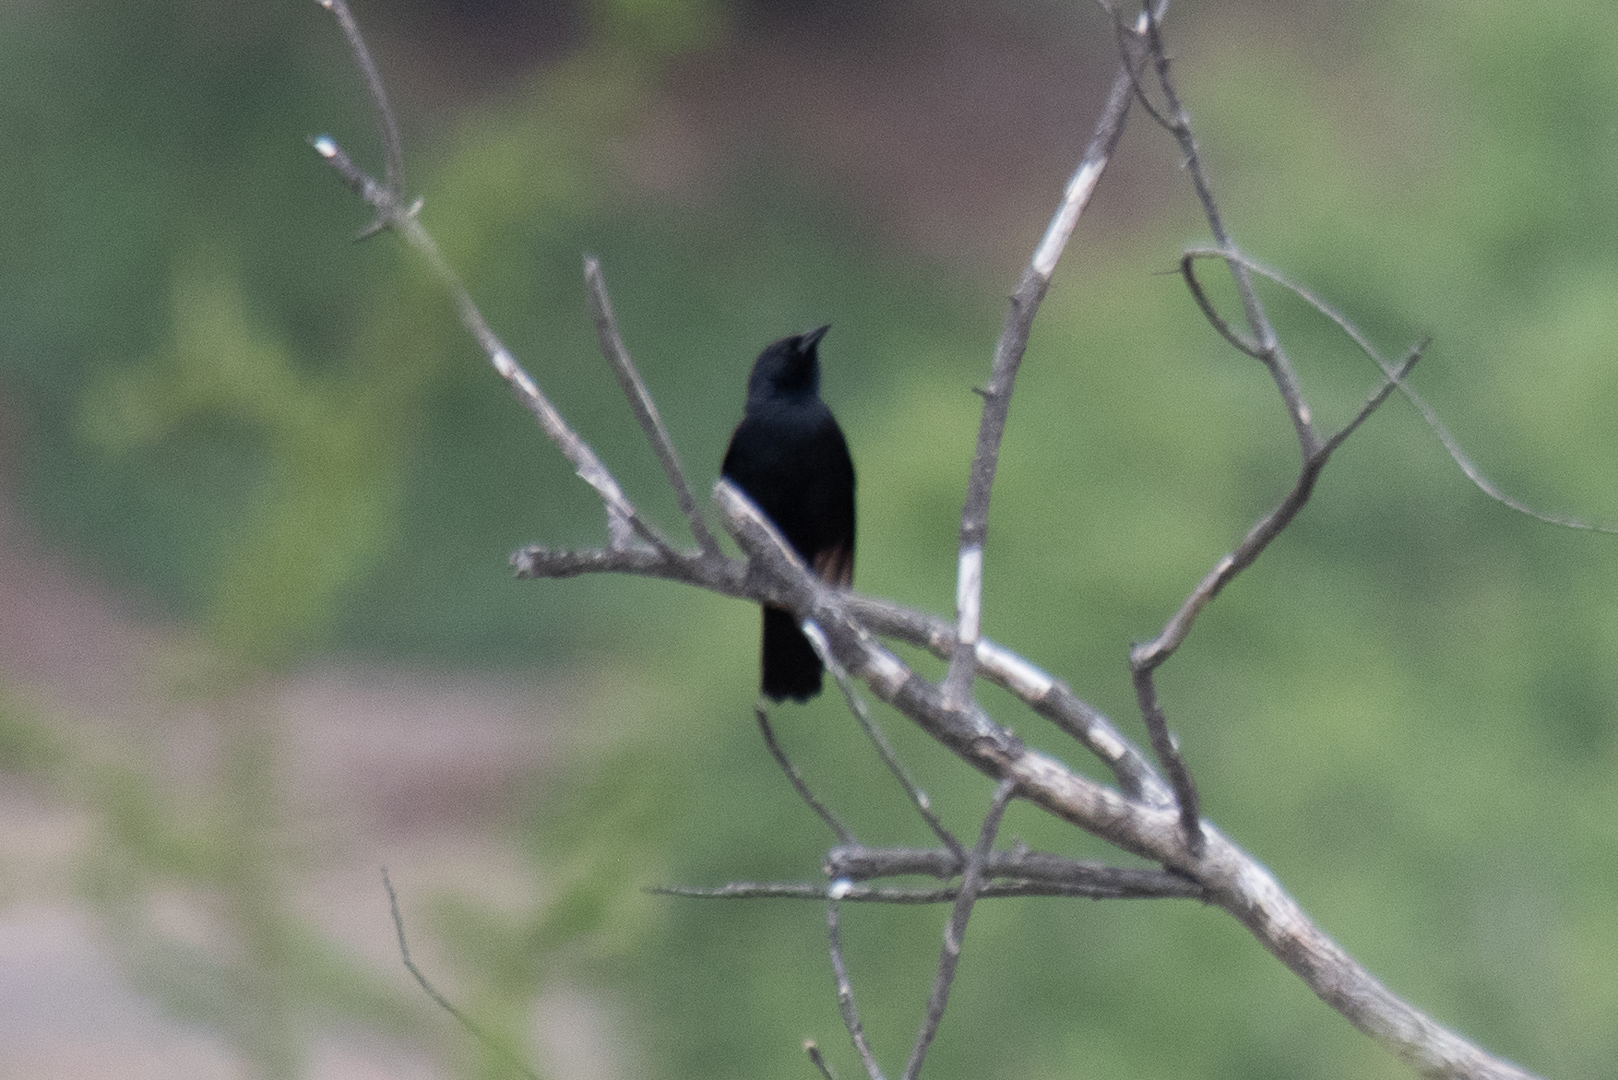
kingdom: Animalia
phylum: Chordata
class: Aves
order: Passeriformes
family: Icteridae
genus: Curaeus
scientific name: Curaeus curaeus
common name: Austral blackbird
